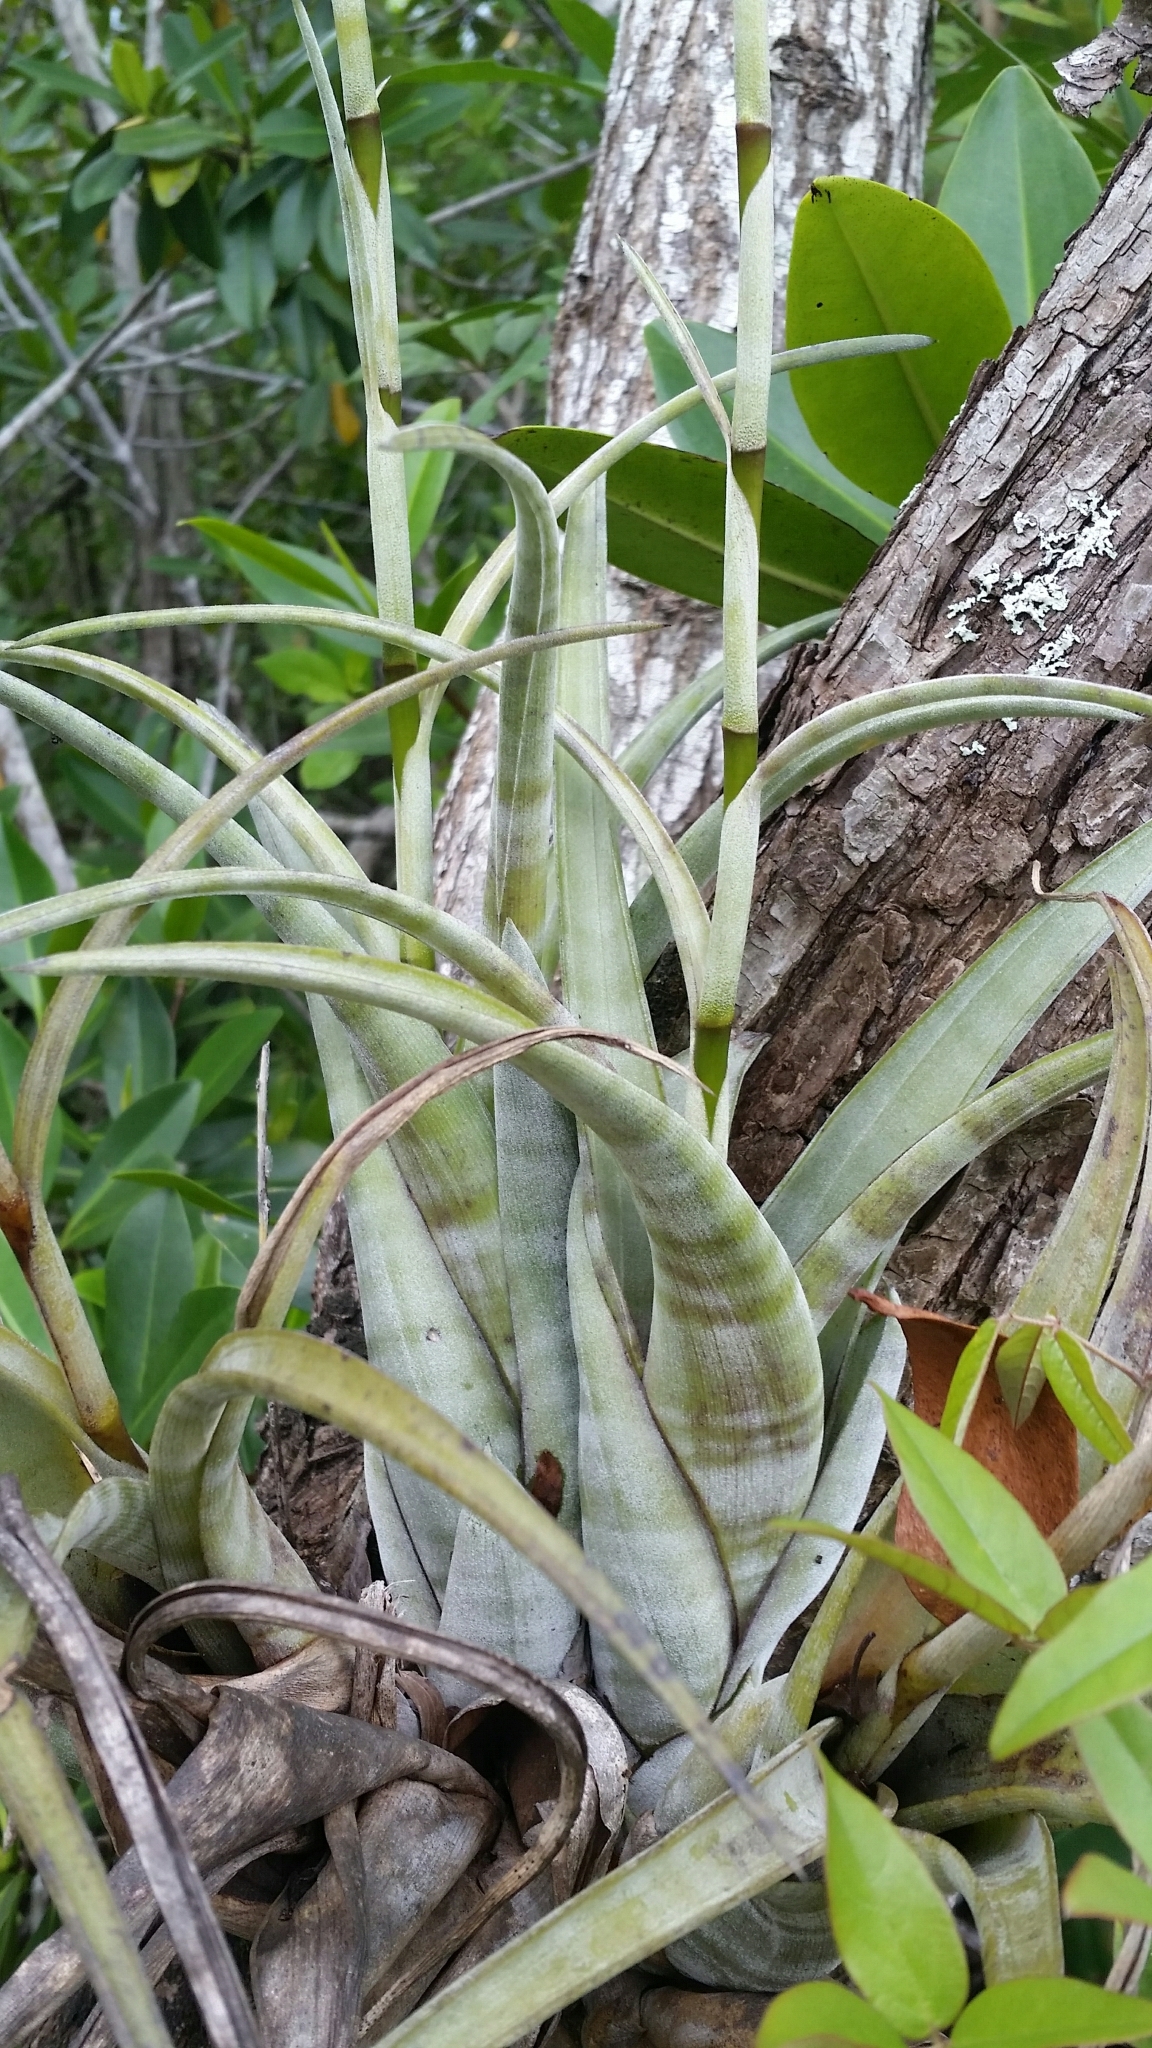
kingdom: Plantae
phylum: Tracheophyta
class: Liliopsida
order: Poales
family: Bromeliaceae
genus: Tillandsia
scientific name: Tillandsia flexuosa
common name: Banded airplant
